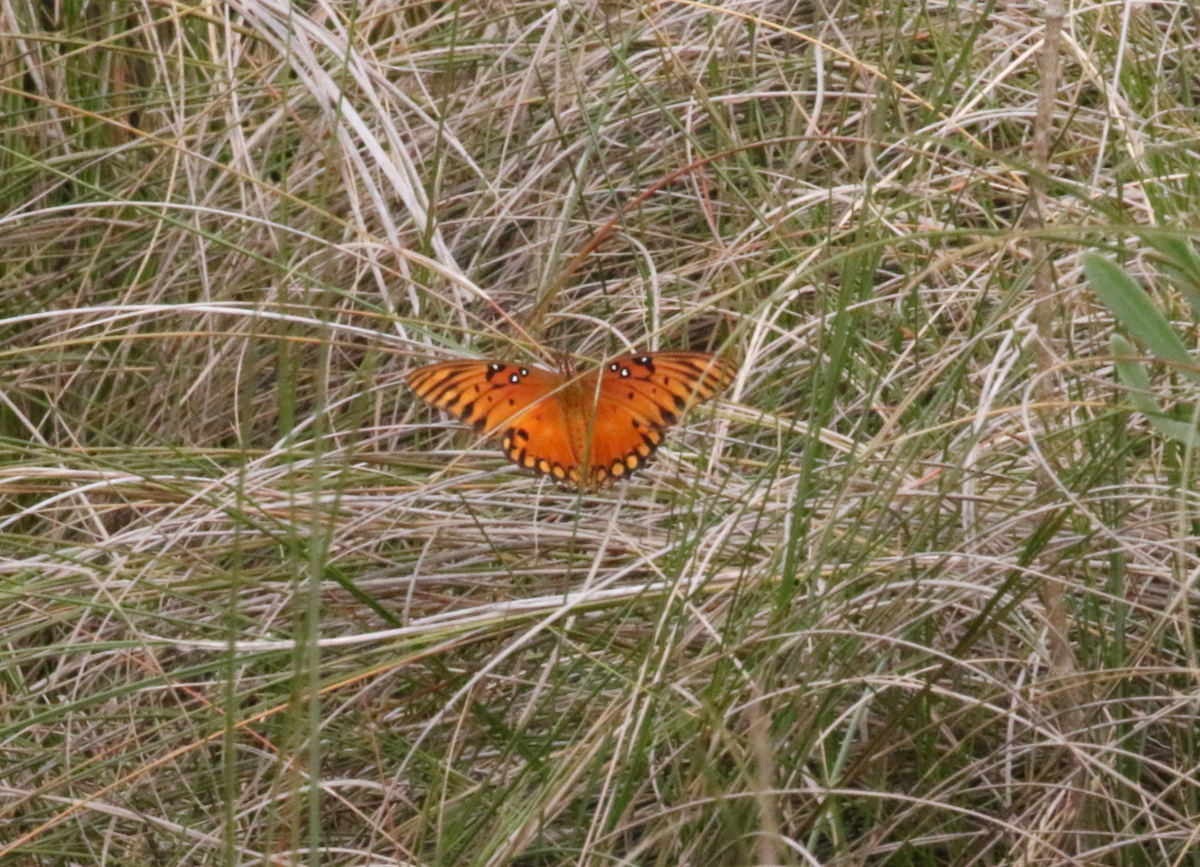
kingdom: Animalia
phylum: Arthropoda
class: Insecta
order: Lepidoptera
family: Nymphalidae
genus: Dione
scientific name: Dione vanillae
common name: Gulf fritillary
